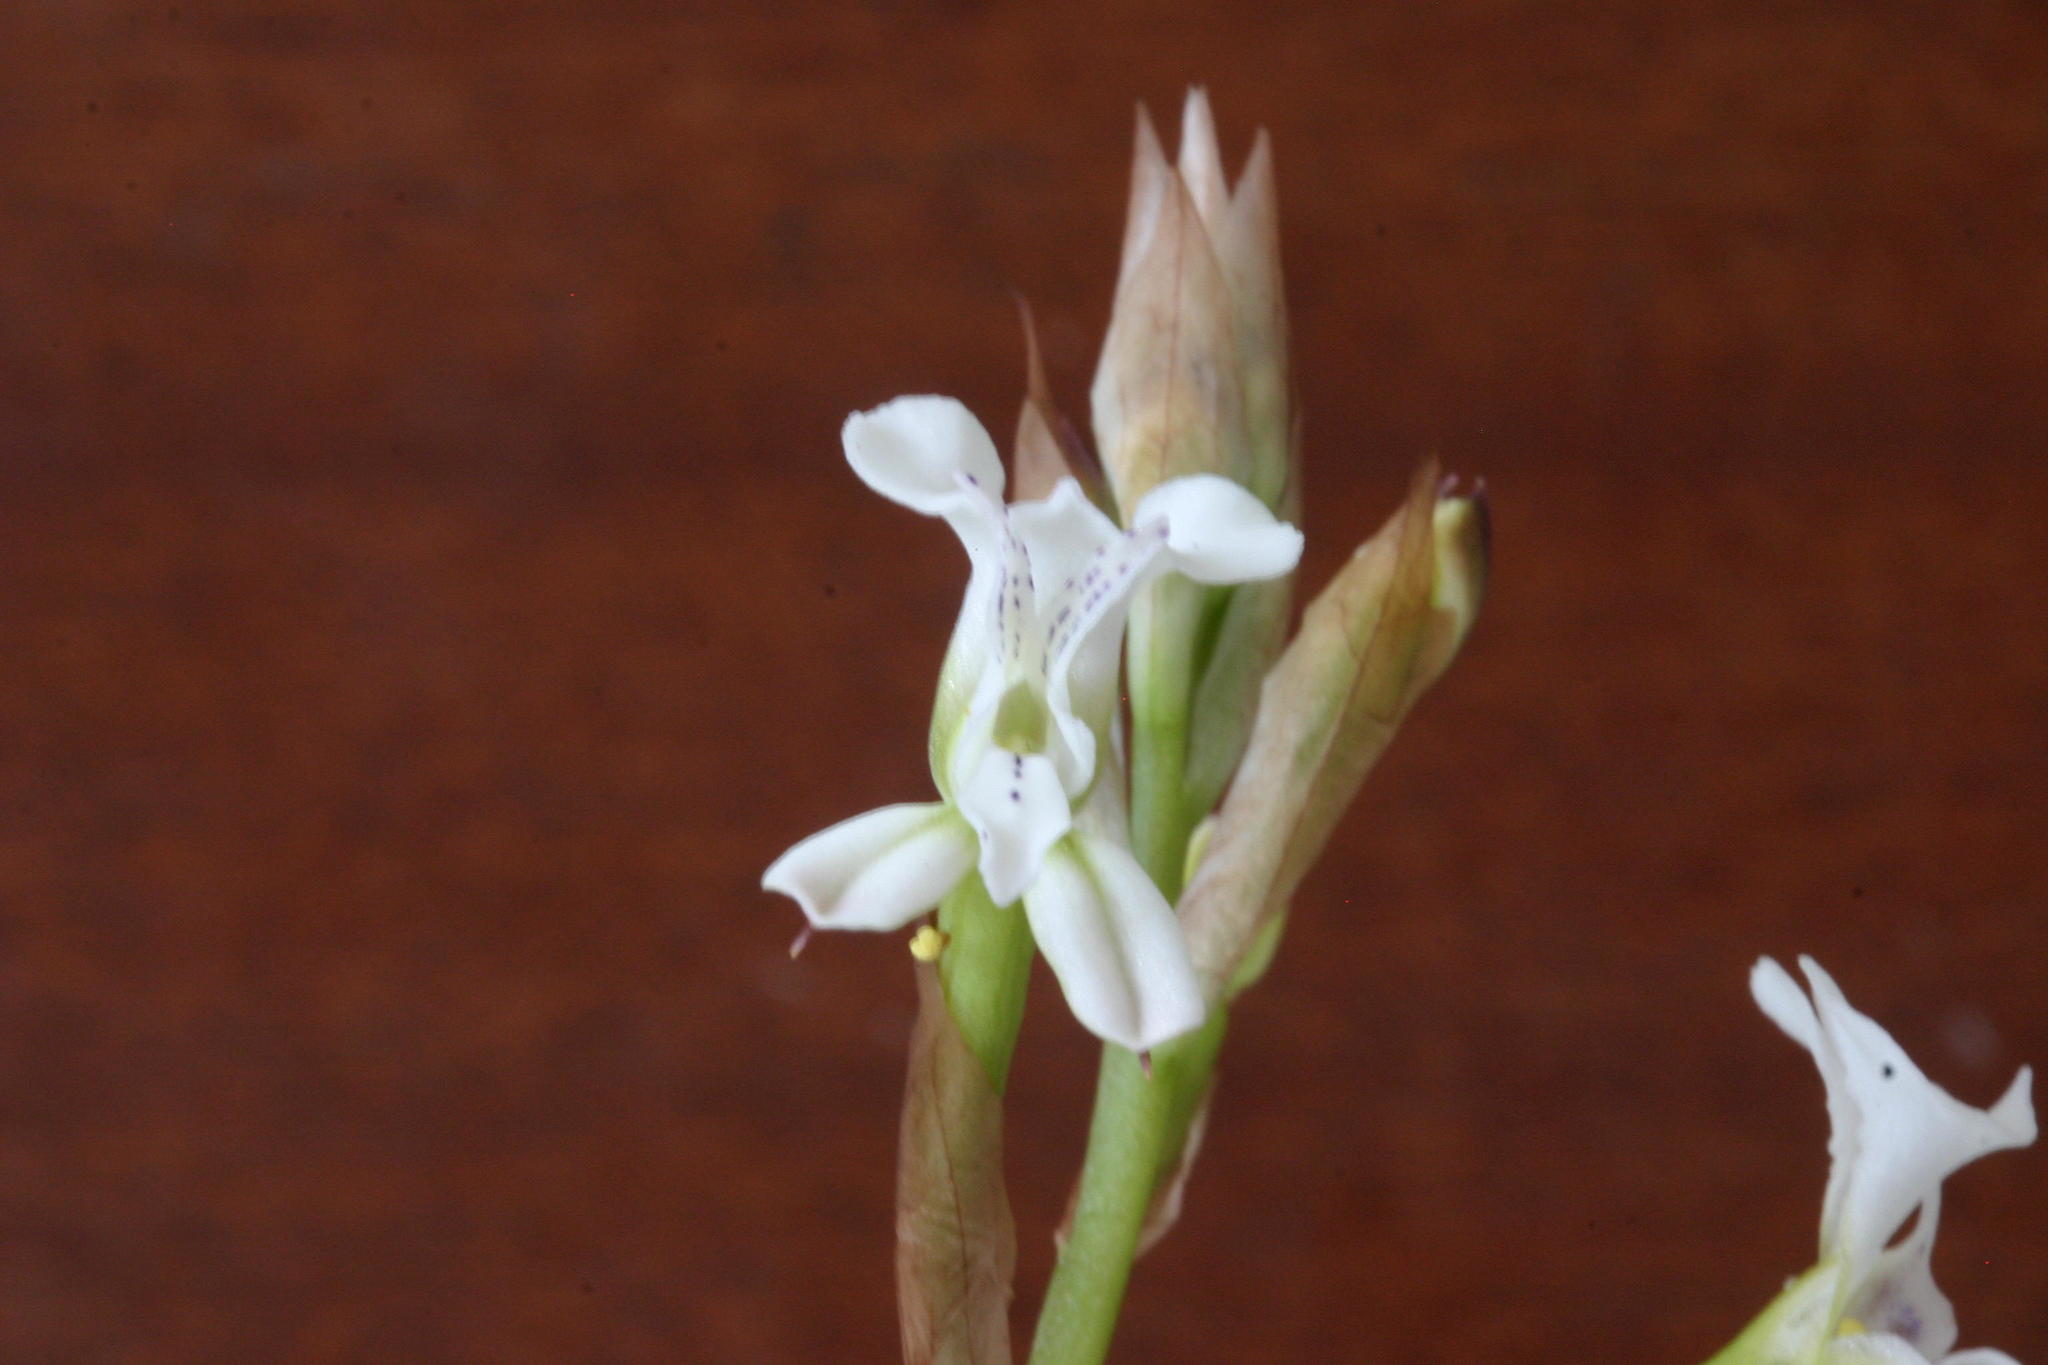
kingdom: Plantae
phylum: Tracheophyta
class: Liliopsida
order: Asparagales
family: Orchidaceae
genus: Disa
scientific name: Disa sagittalis
